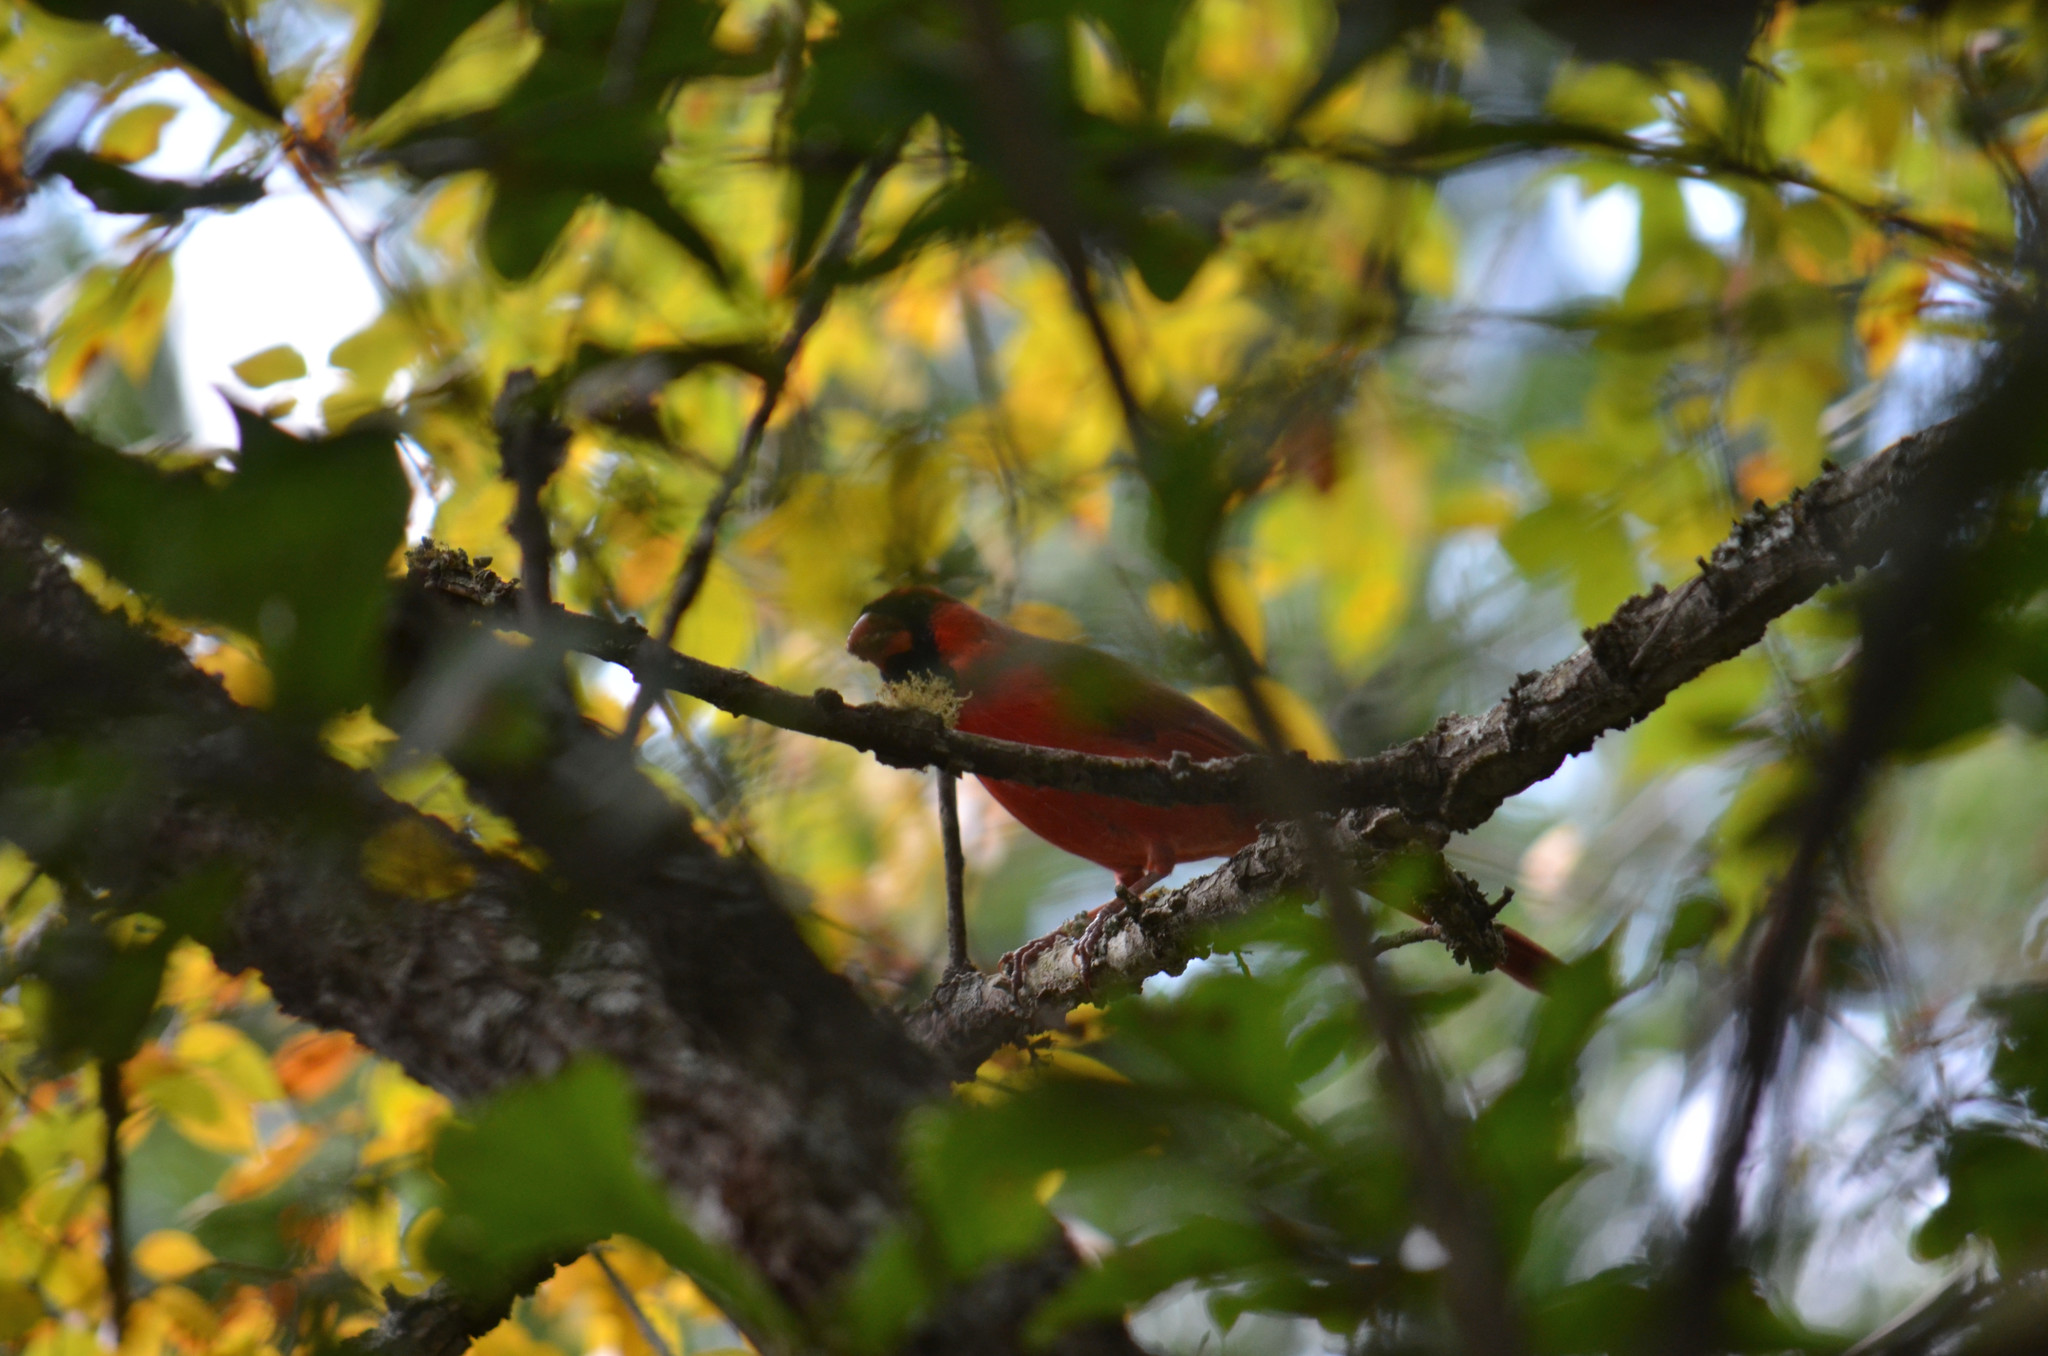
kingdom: Animalia
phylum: Chordata
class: Aves
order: Passeriformes
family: Cardinalidae
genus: Cardinalis
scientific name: Cardinalis cardinalis
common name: Northern cardinal
